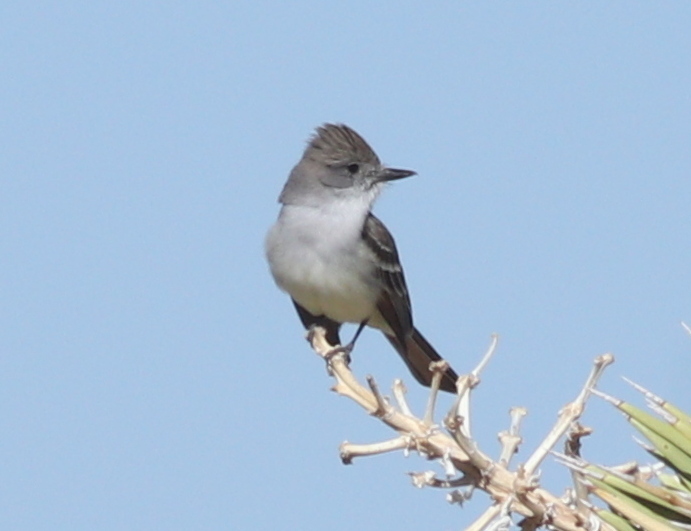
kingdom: Animalia
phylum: Chordata
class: Aves
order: Passeriformes
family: Tyrannidae
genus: Myiarchus
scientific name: Myiarchus cinerascens
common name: Ash-throated flycatcher
